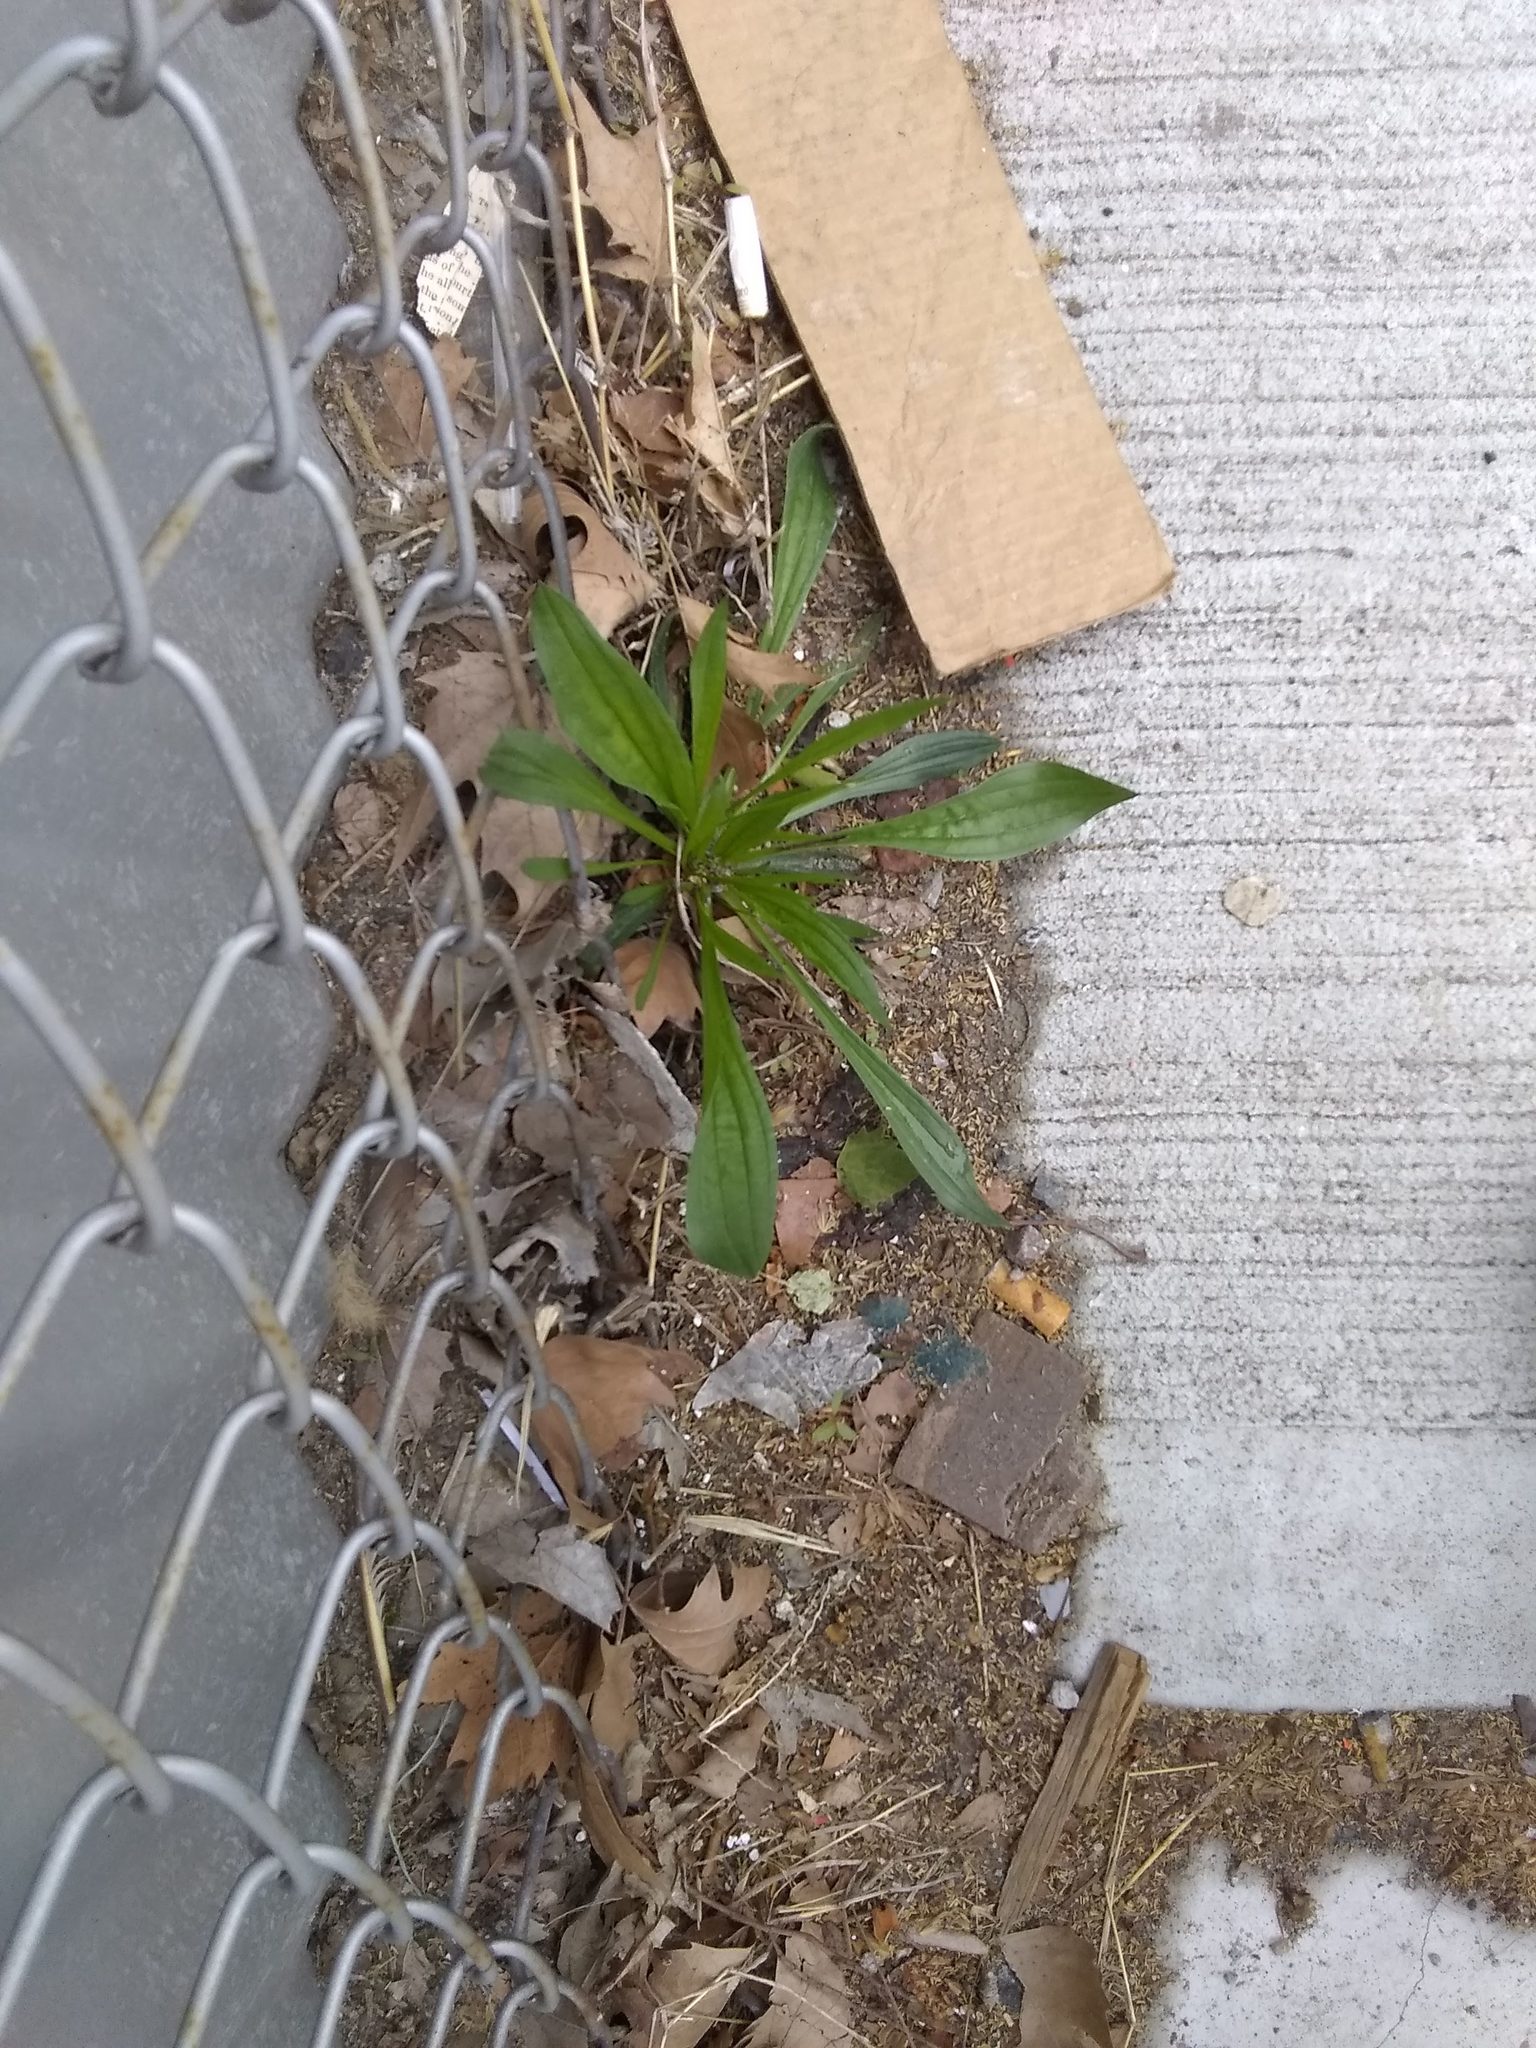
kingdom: Plantae
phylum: Tracheophyta
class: Magnoliopsida
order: Lamiales
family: Plantaginaceae
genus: Plantago
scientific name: Plantago lanceolata
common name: Ribwort plantain
